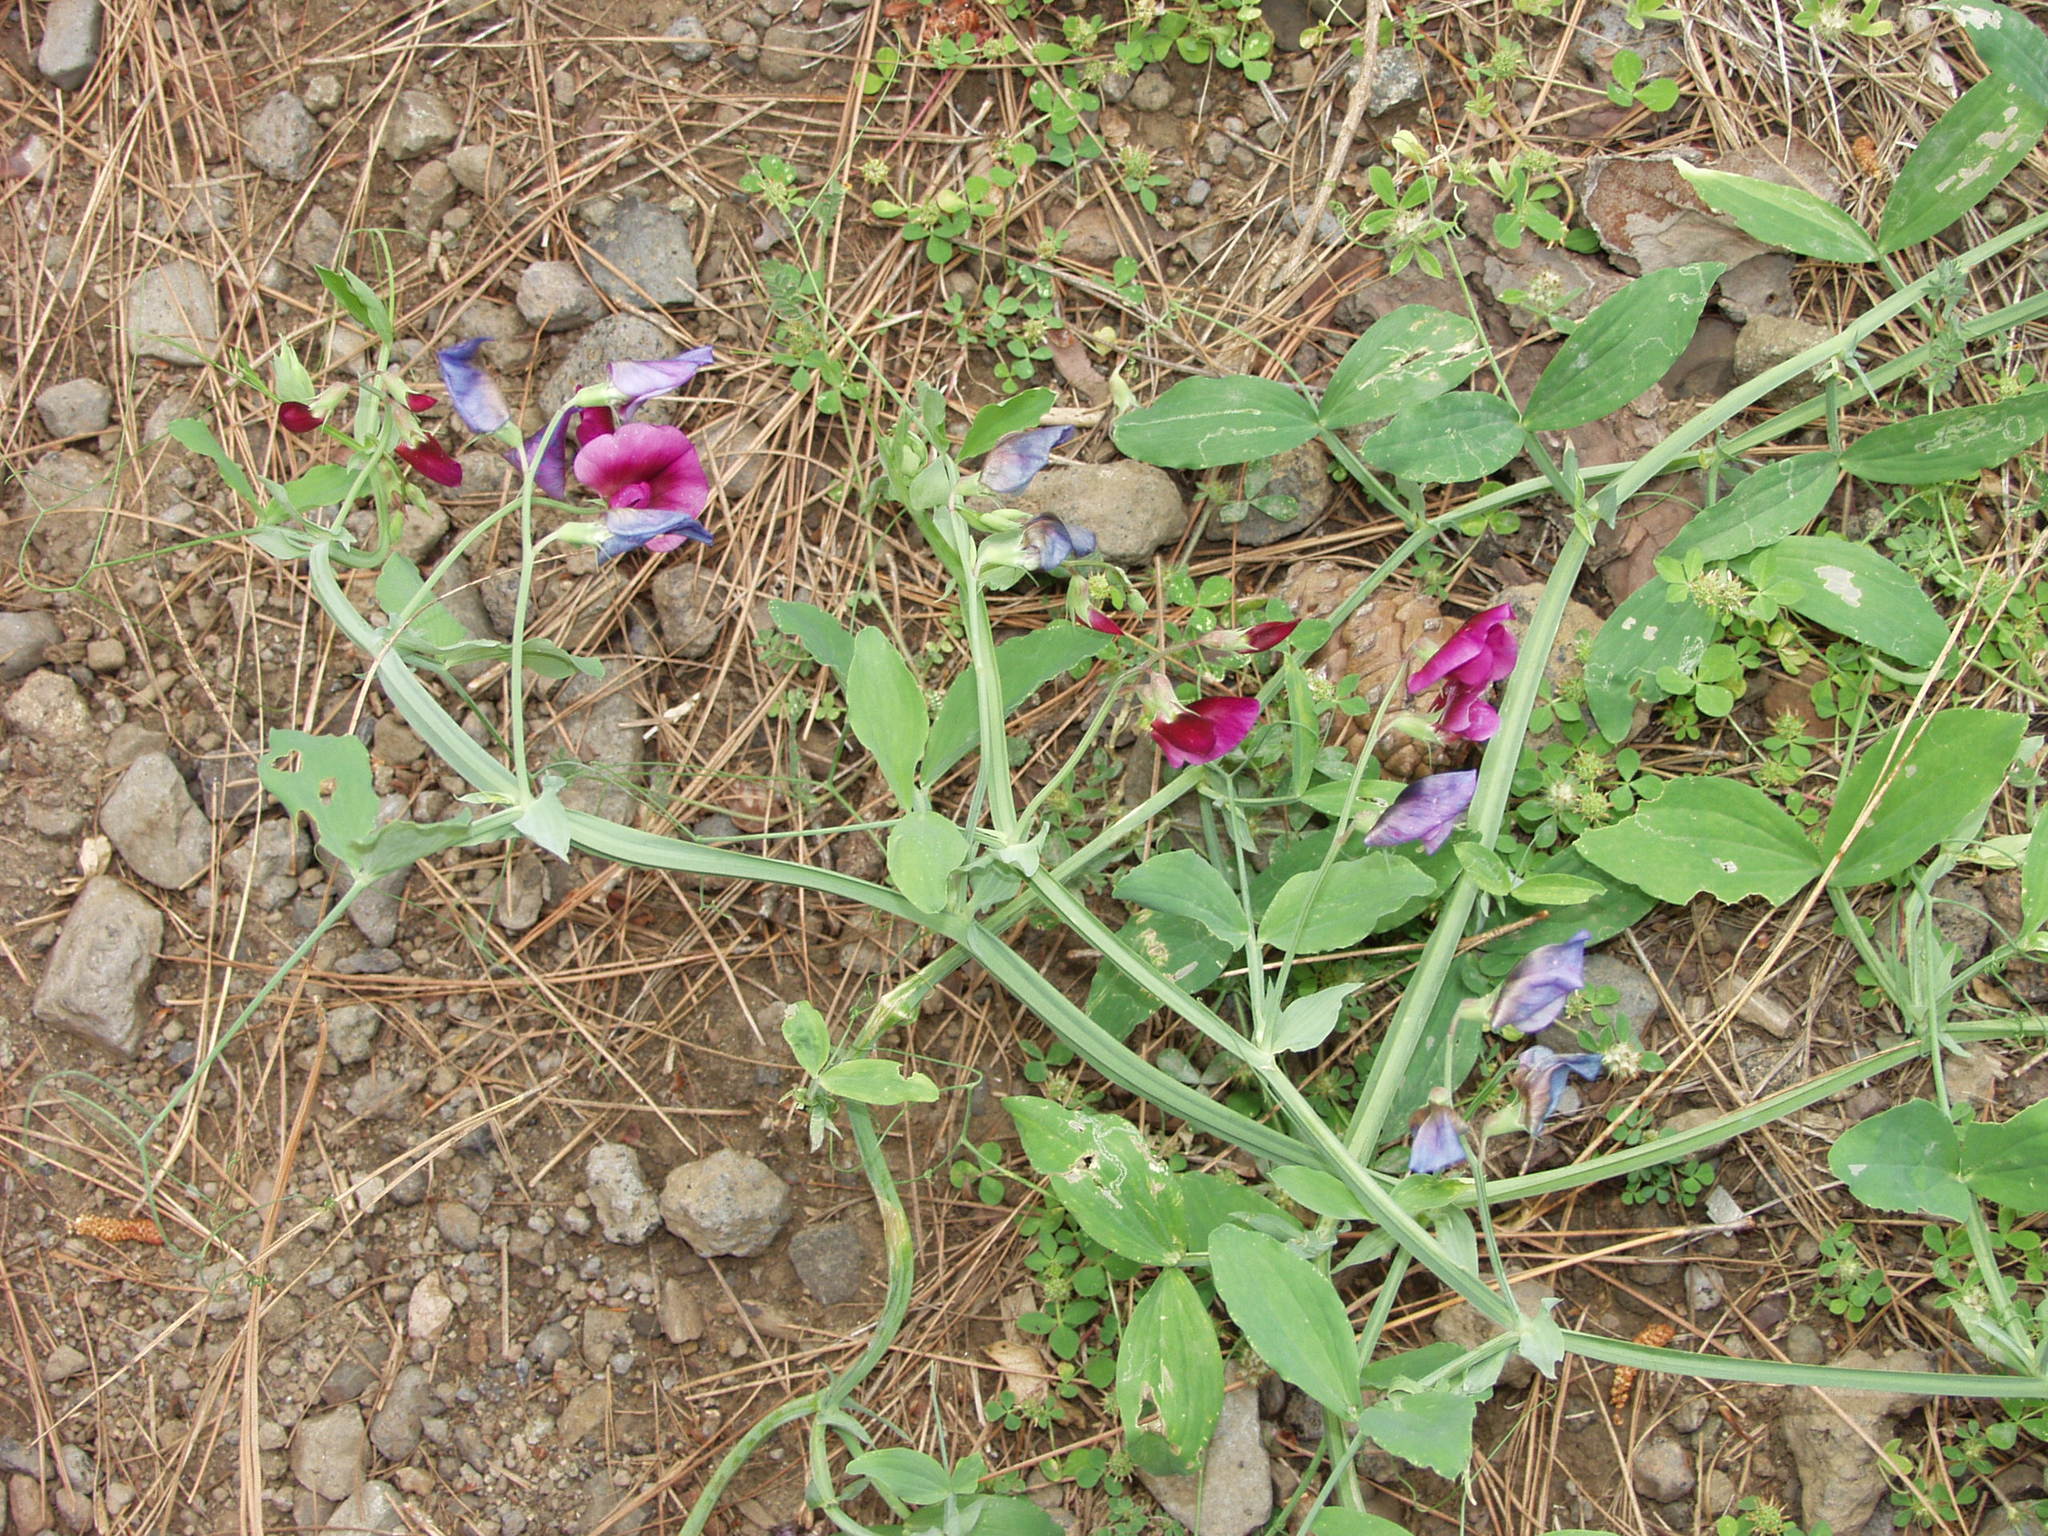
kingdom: Plantae
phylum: Tracheophyta
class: Magnoliopsida
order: Fabales
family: Fabaceae
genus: Lathyrus
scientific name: Lathyrus tingitanus
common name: Tangier pea
